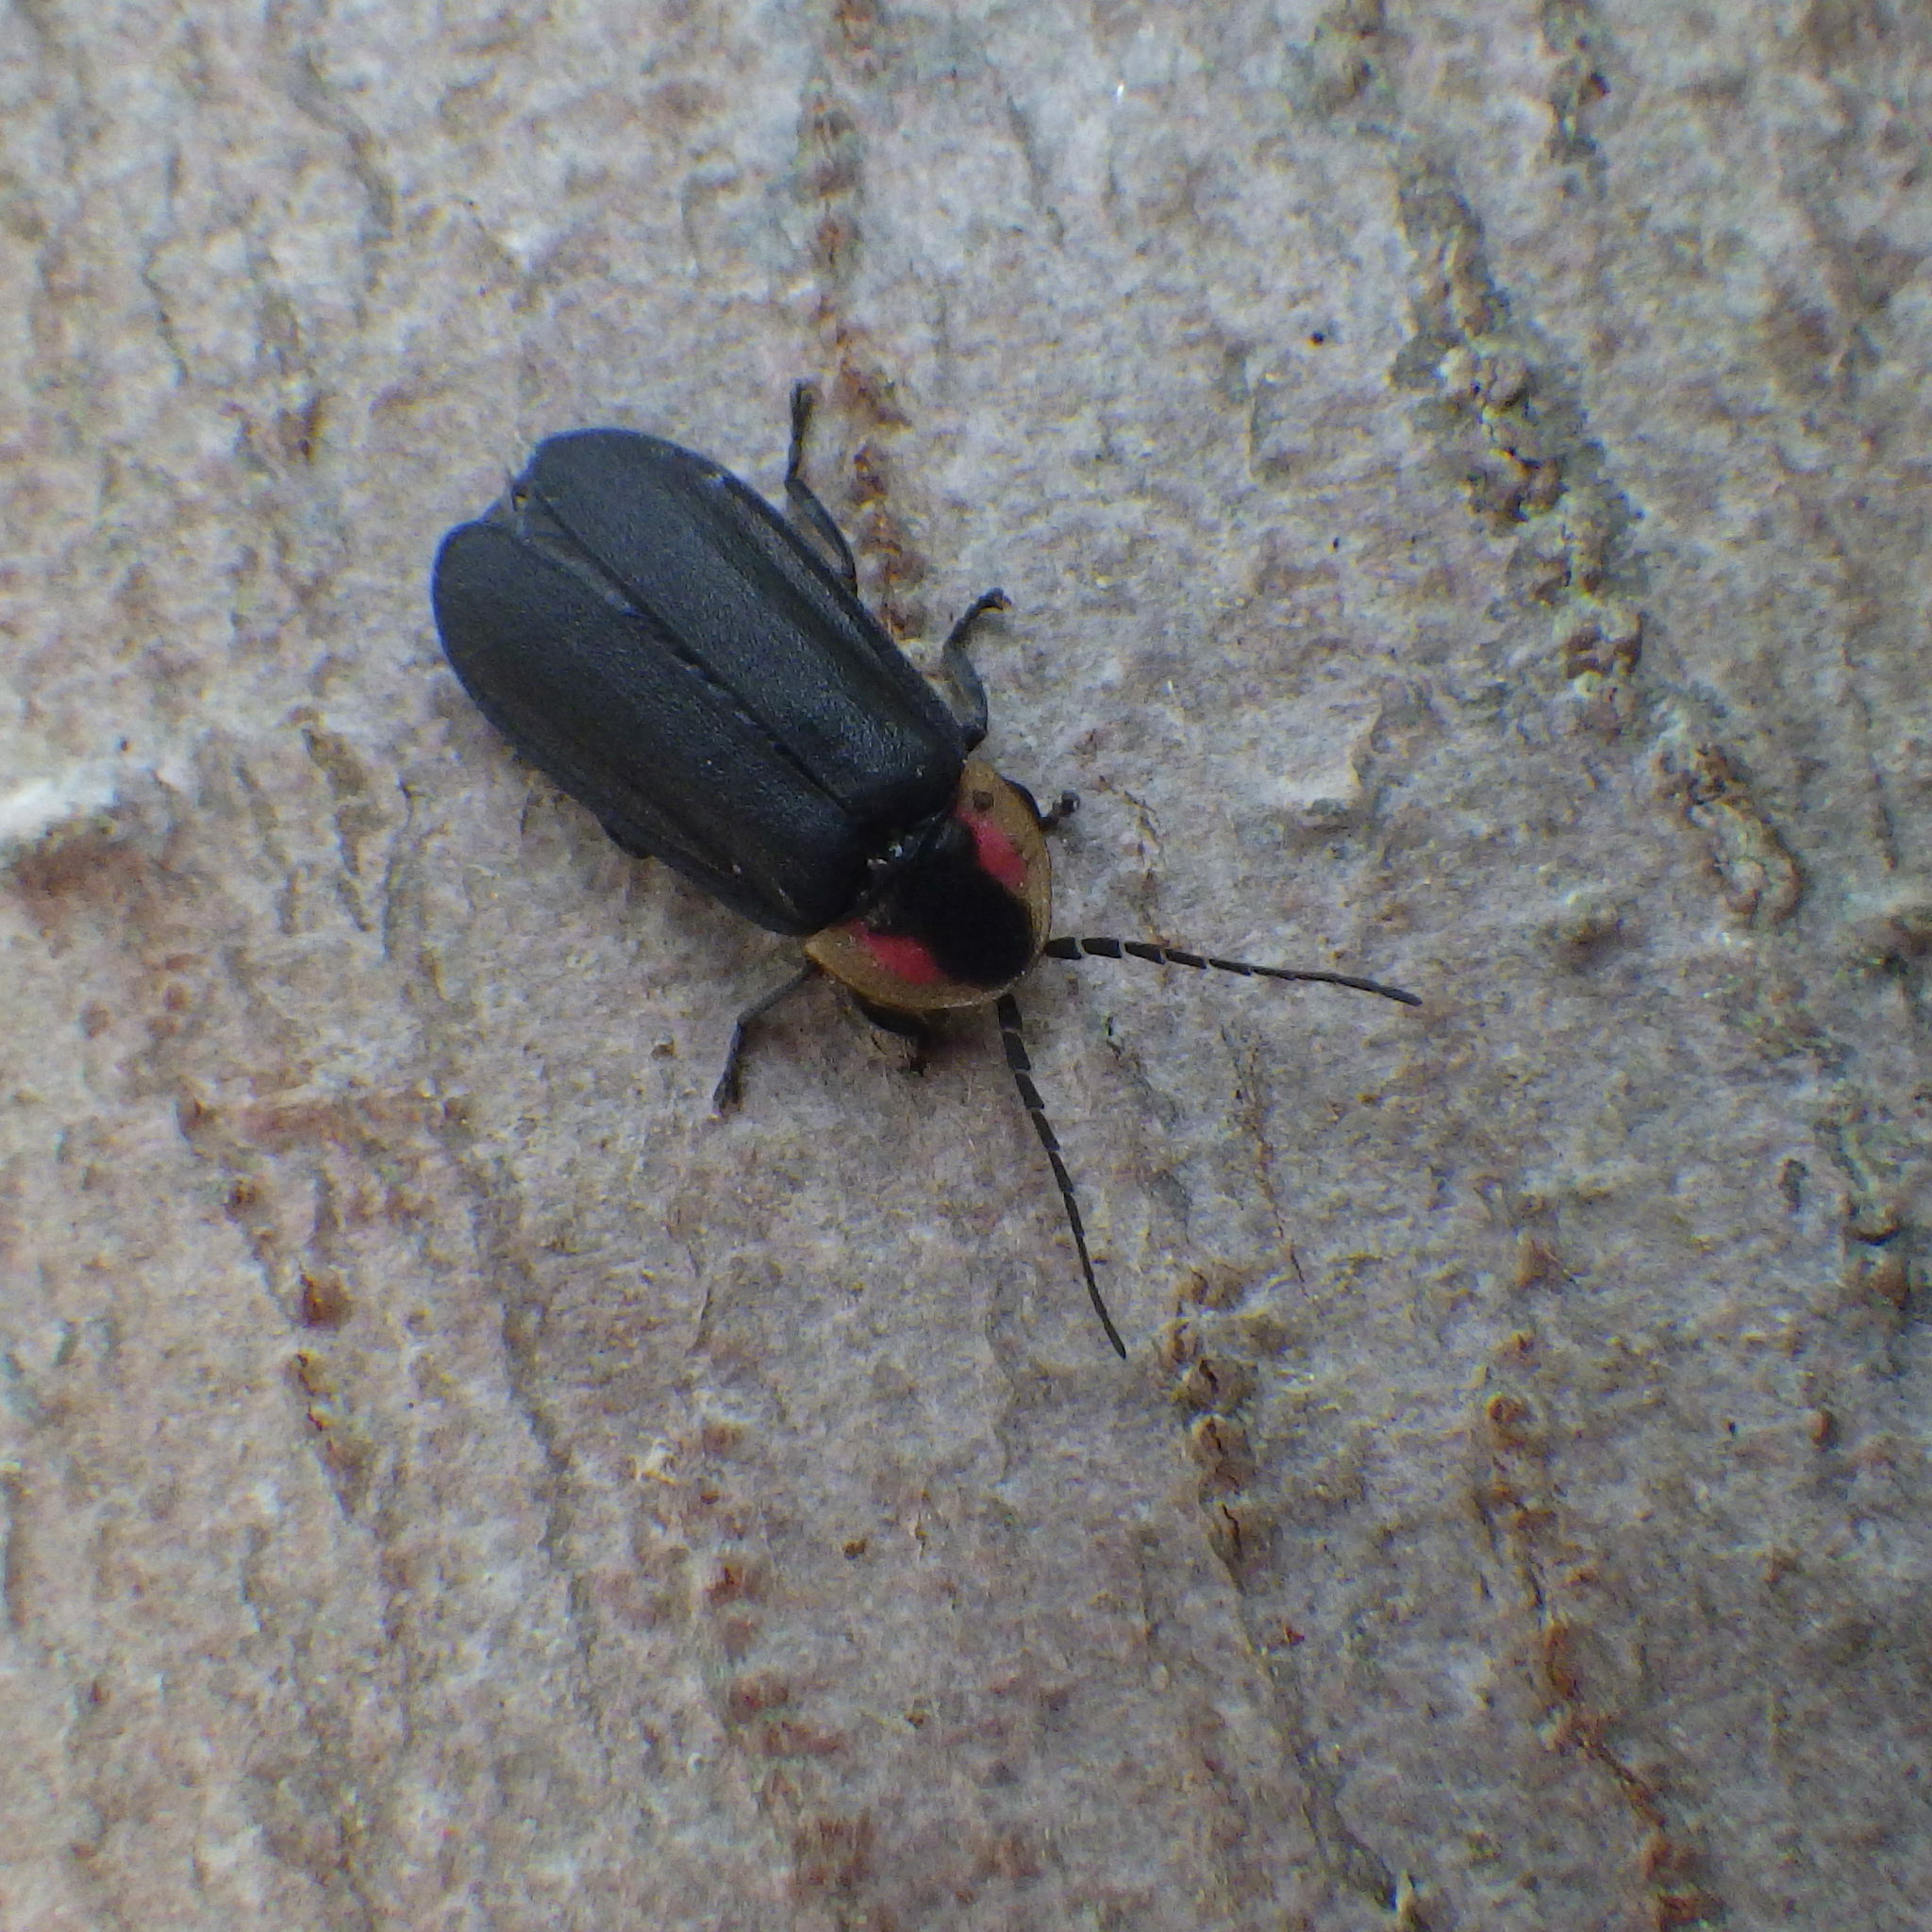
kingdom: Animalia
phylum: Arthropoda
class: Insecta
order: Coleoptera
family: Lampyridae
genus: Lucidota
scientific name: Lucidota atra
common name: Black firefly
